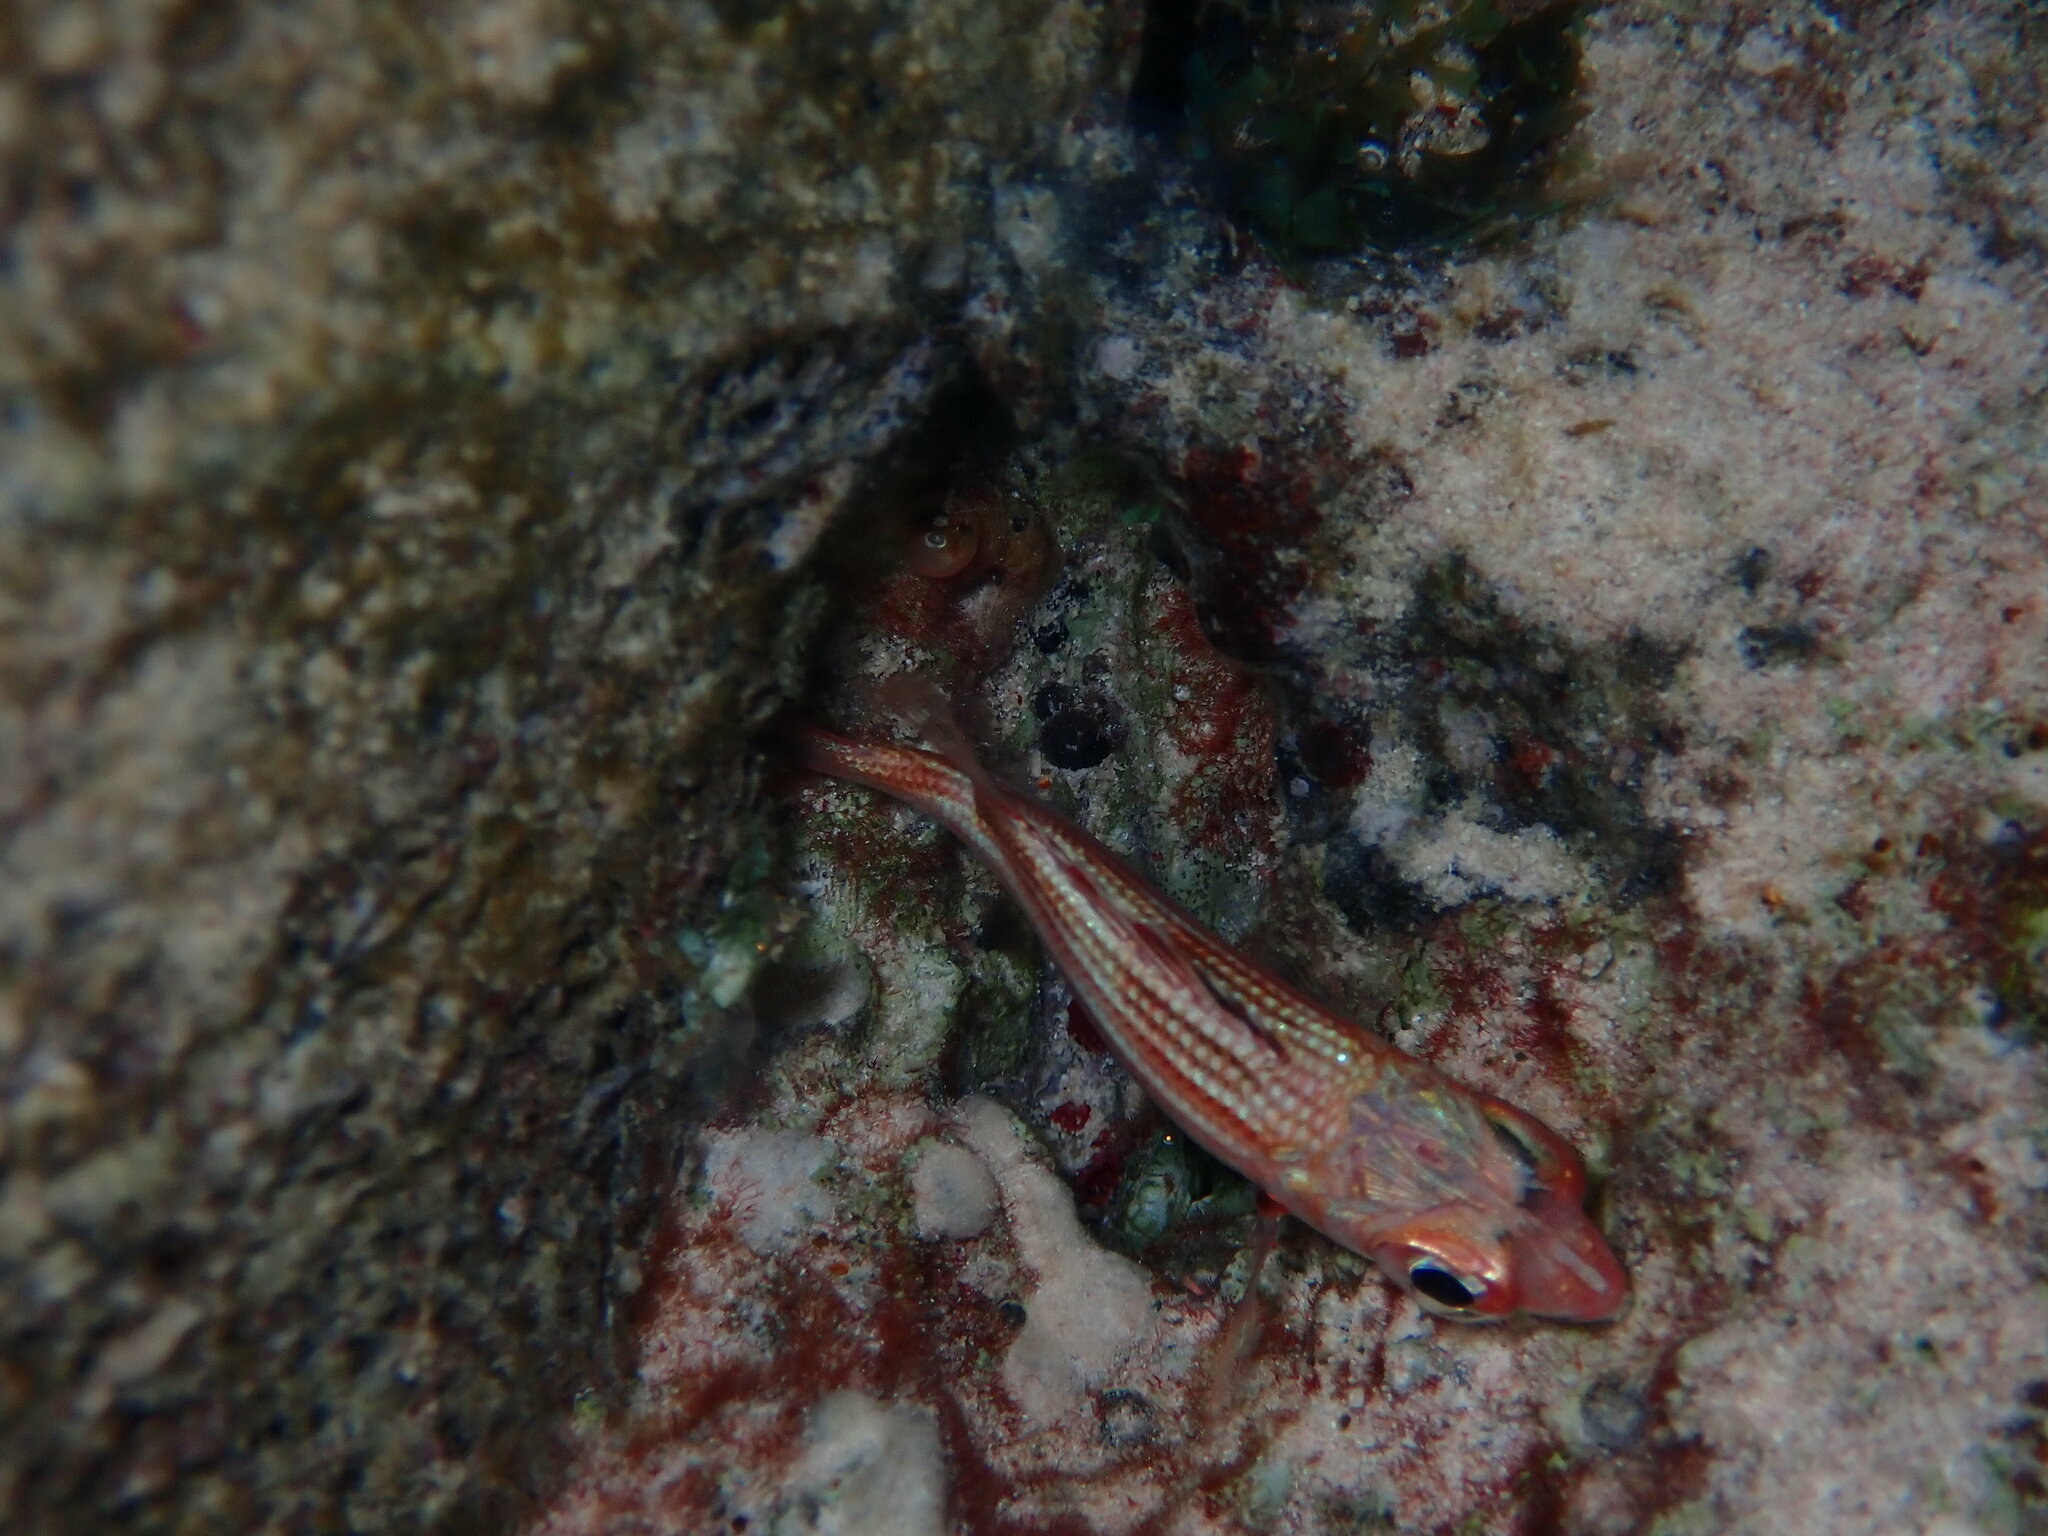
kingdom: Animalia
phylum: Chordata
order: Beryciformes
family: Holocentridae
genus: Neoniphon
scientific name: Neoniphon vexillarium
